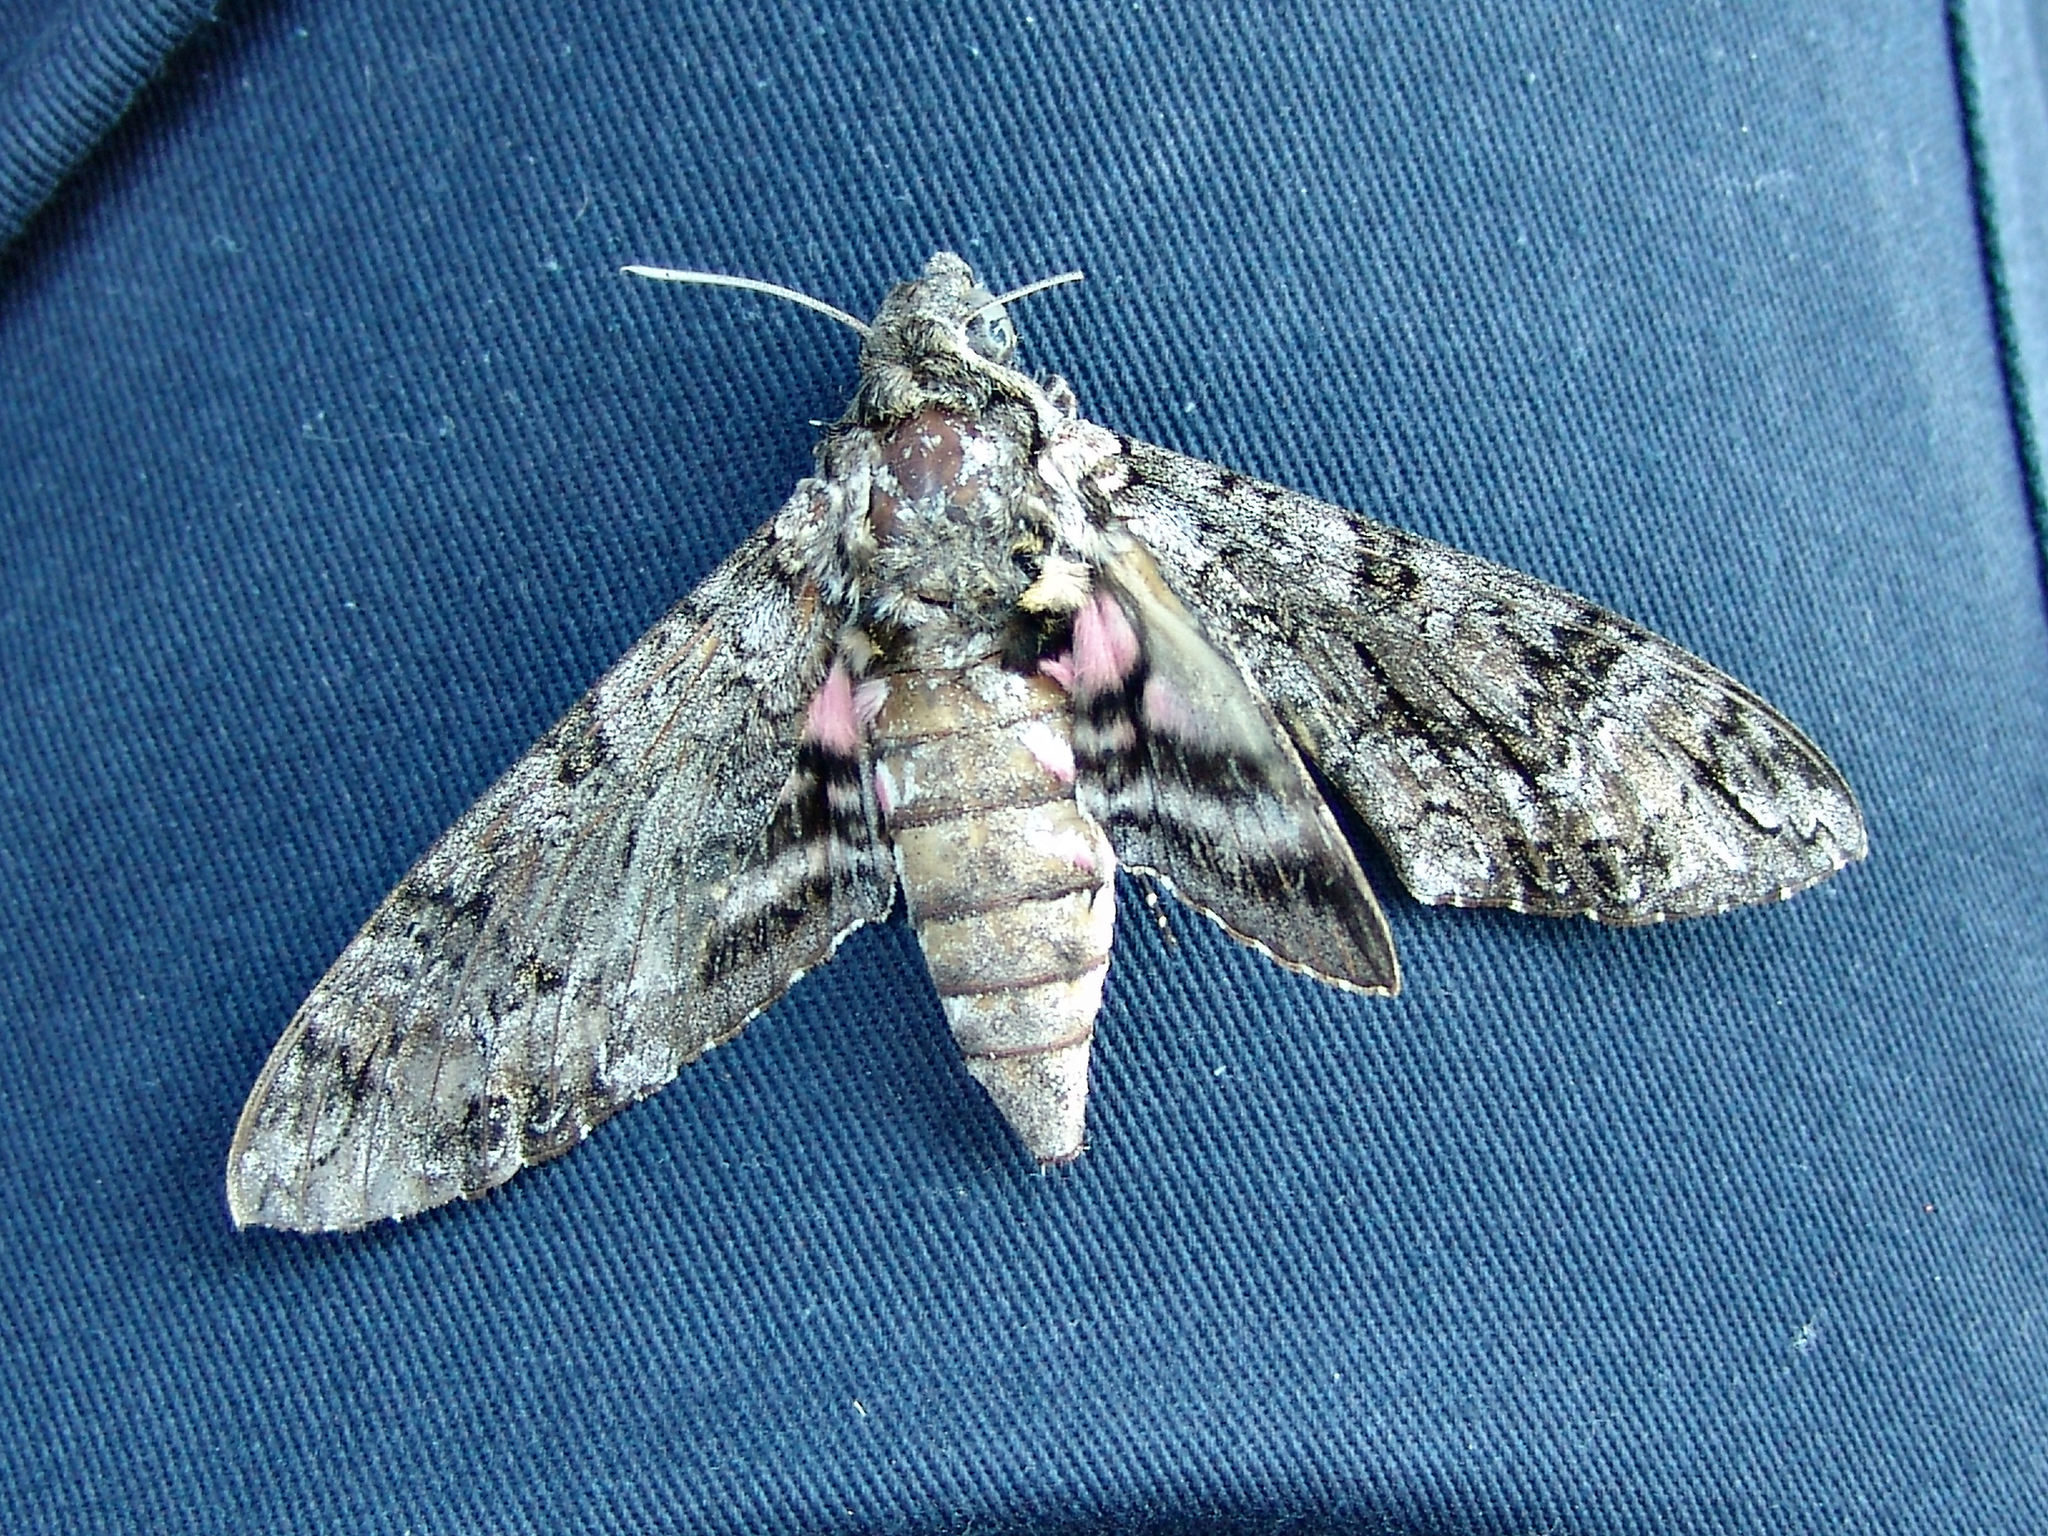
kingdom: Animalia
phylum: Arthropoda
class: Insecta
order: Lepidoptera
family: Sphingidae
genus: Agrius
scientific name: Agrius cingulata
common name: Pink-spotted hawkmoth
